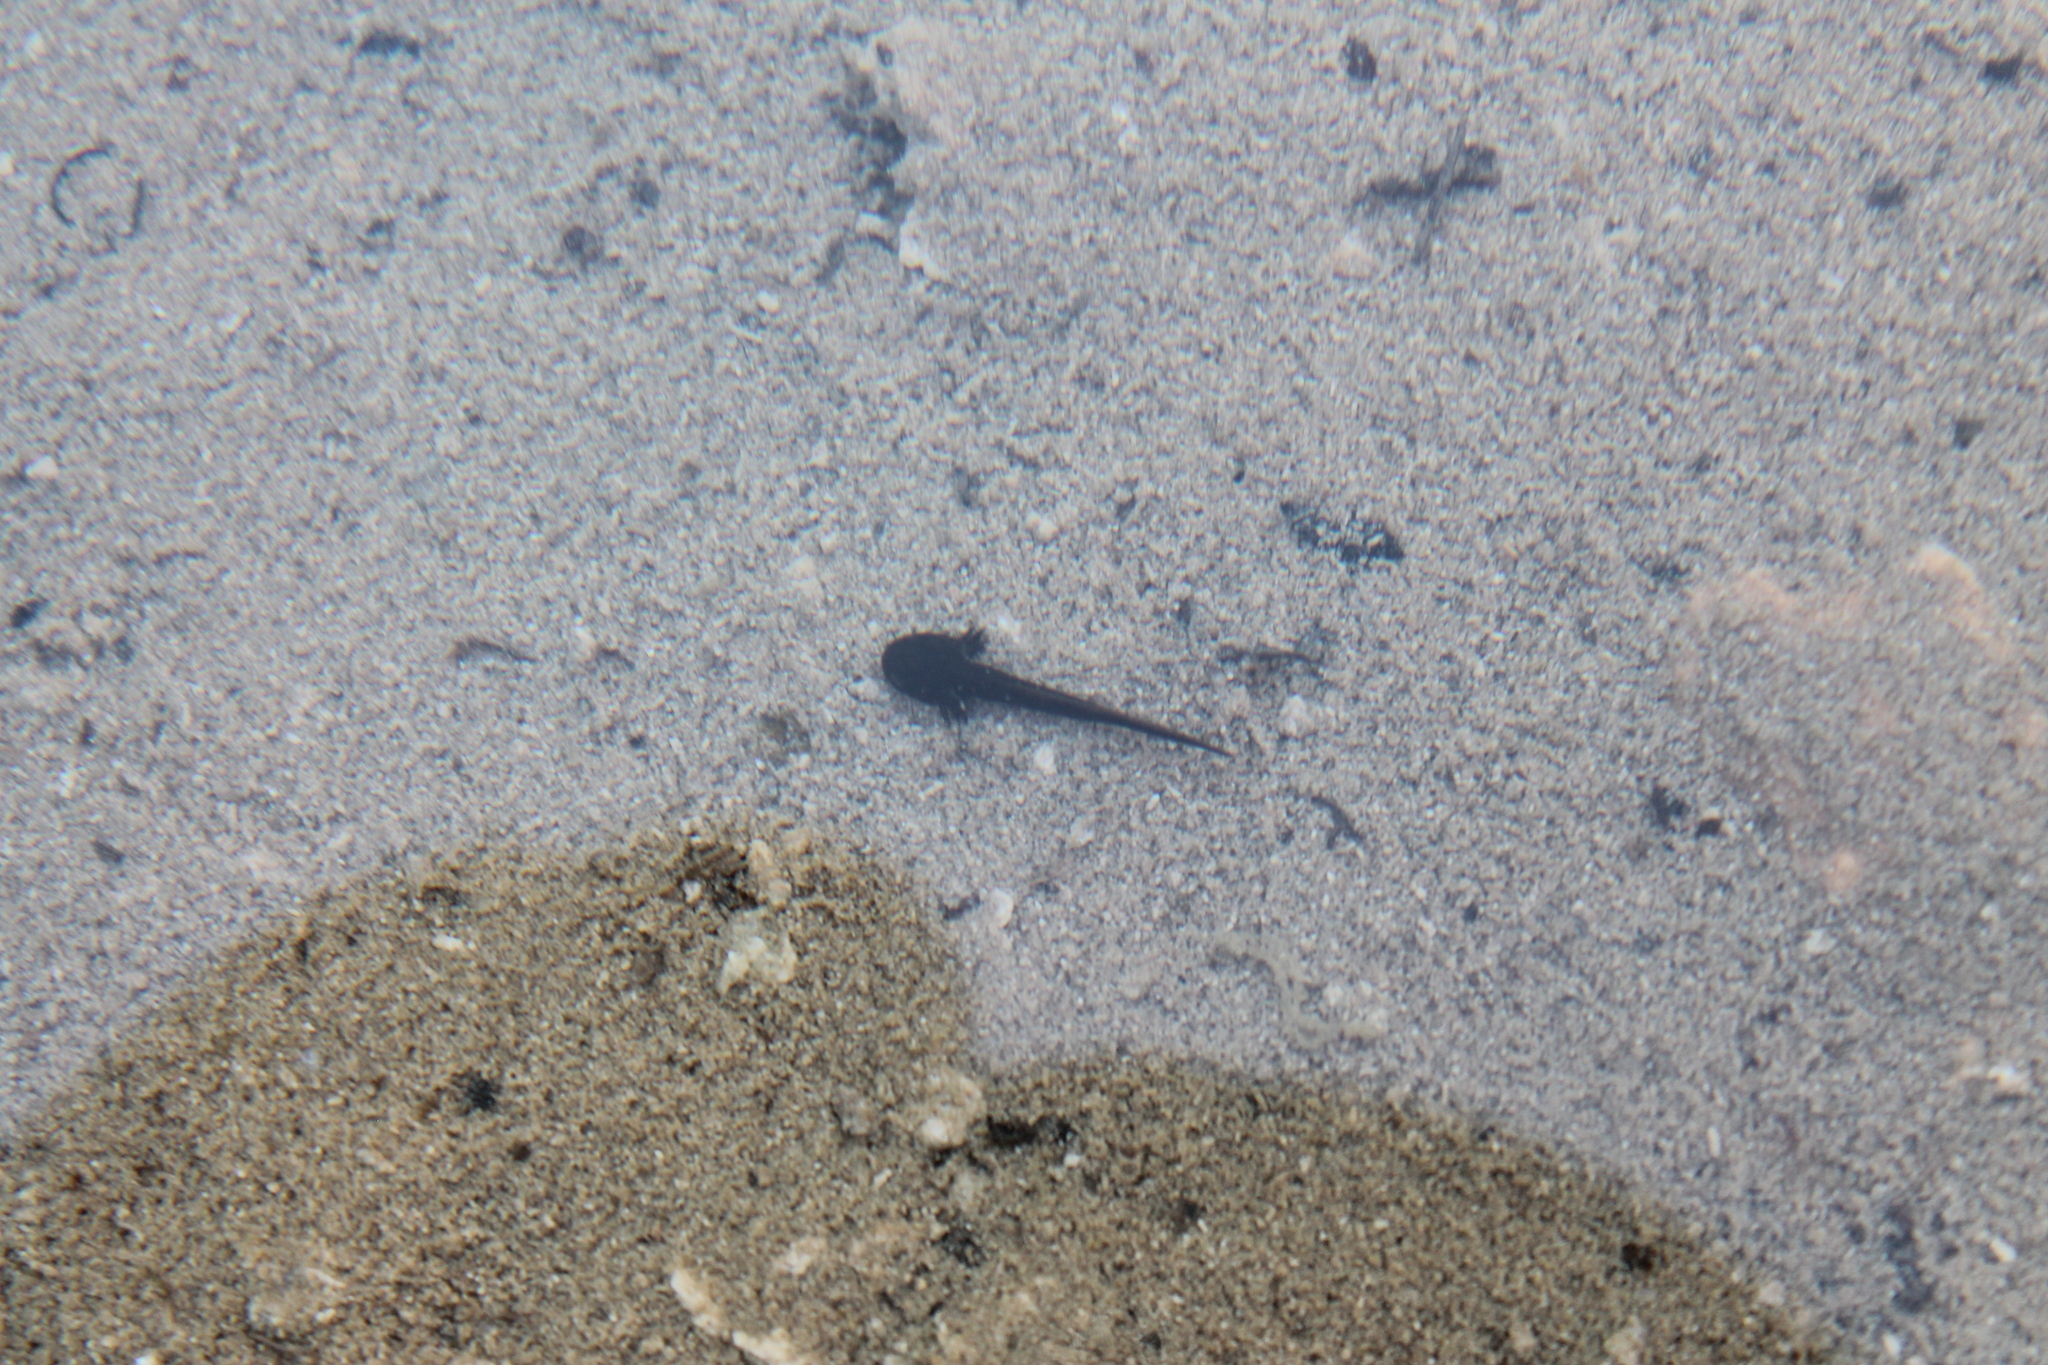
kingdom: Animalia
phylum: Chordata
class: Amphibia
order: Caudata
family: Ambystomatidae
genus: Ambystoma
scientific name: Ambystoma barbouri
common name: Streamside salamander
